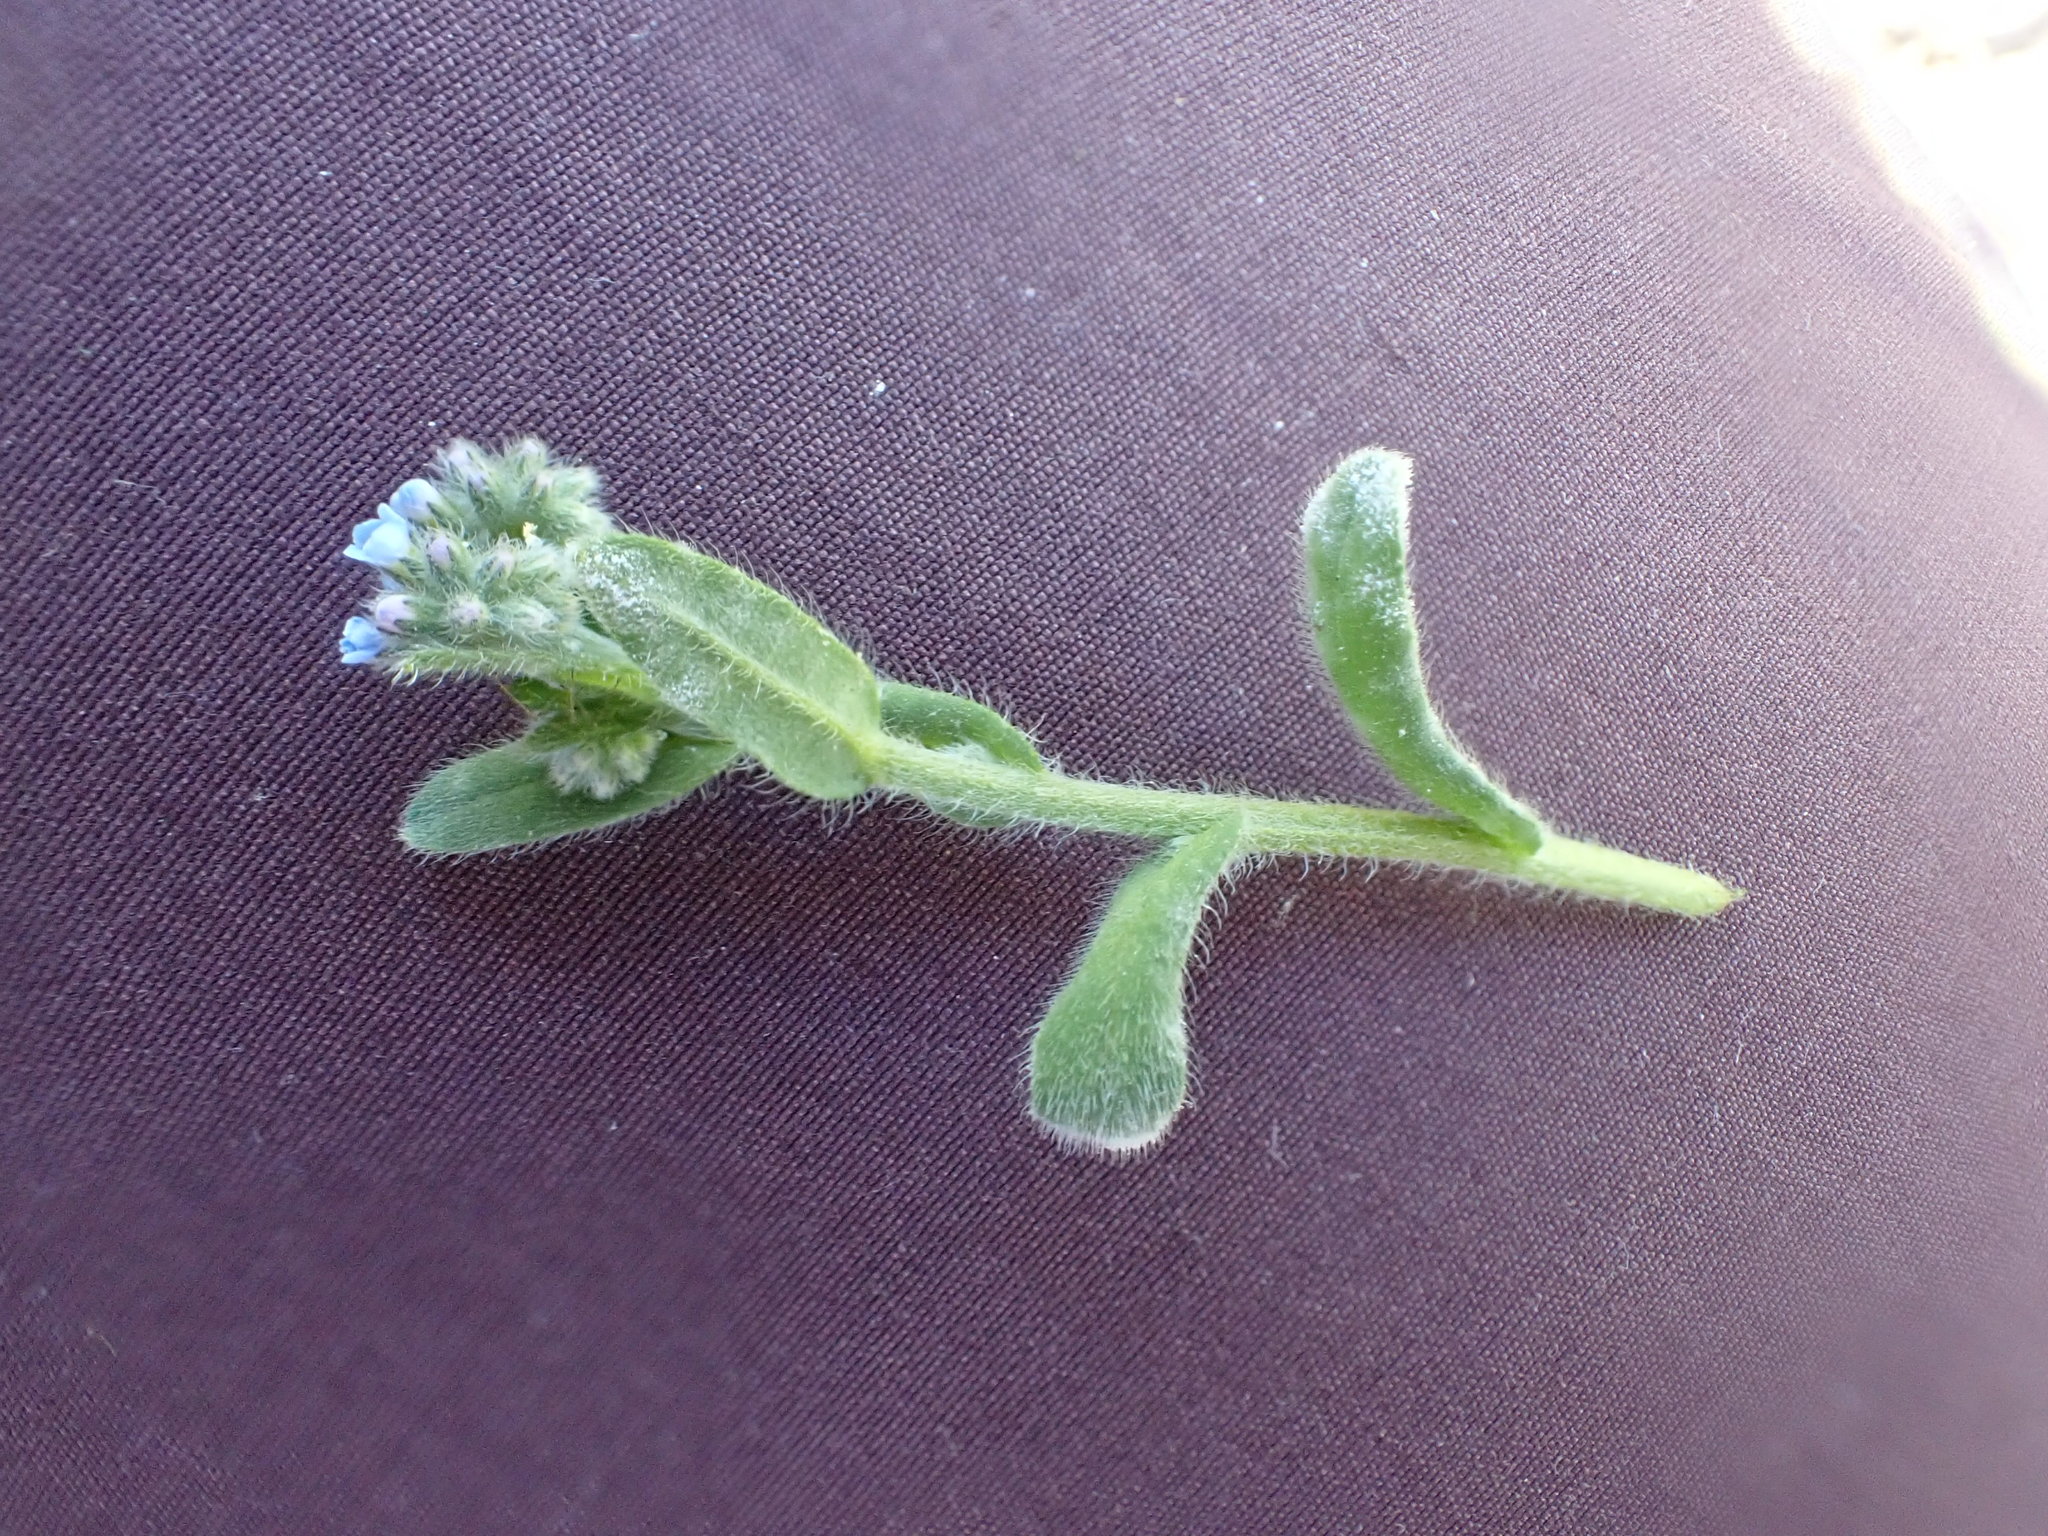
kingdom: Fungi
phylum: Ascomycota
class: Leotiomycetes
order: Helotiales
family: Erysiphaceae
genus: Golovinomyces
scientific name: Golovinomyces asperifolii
